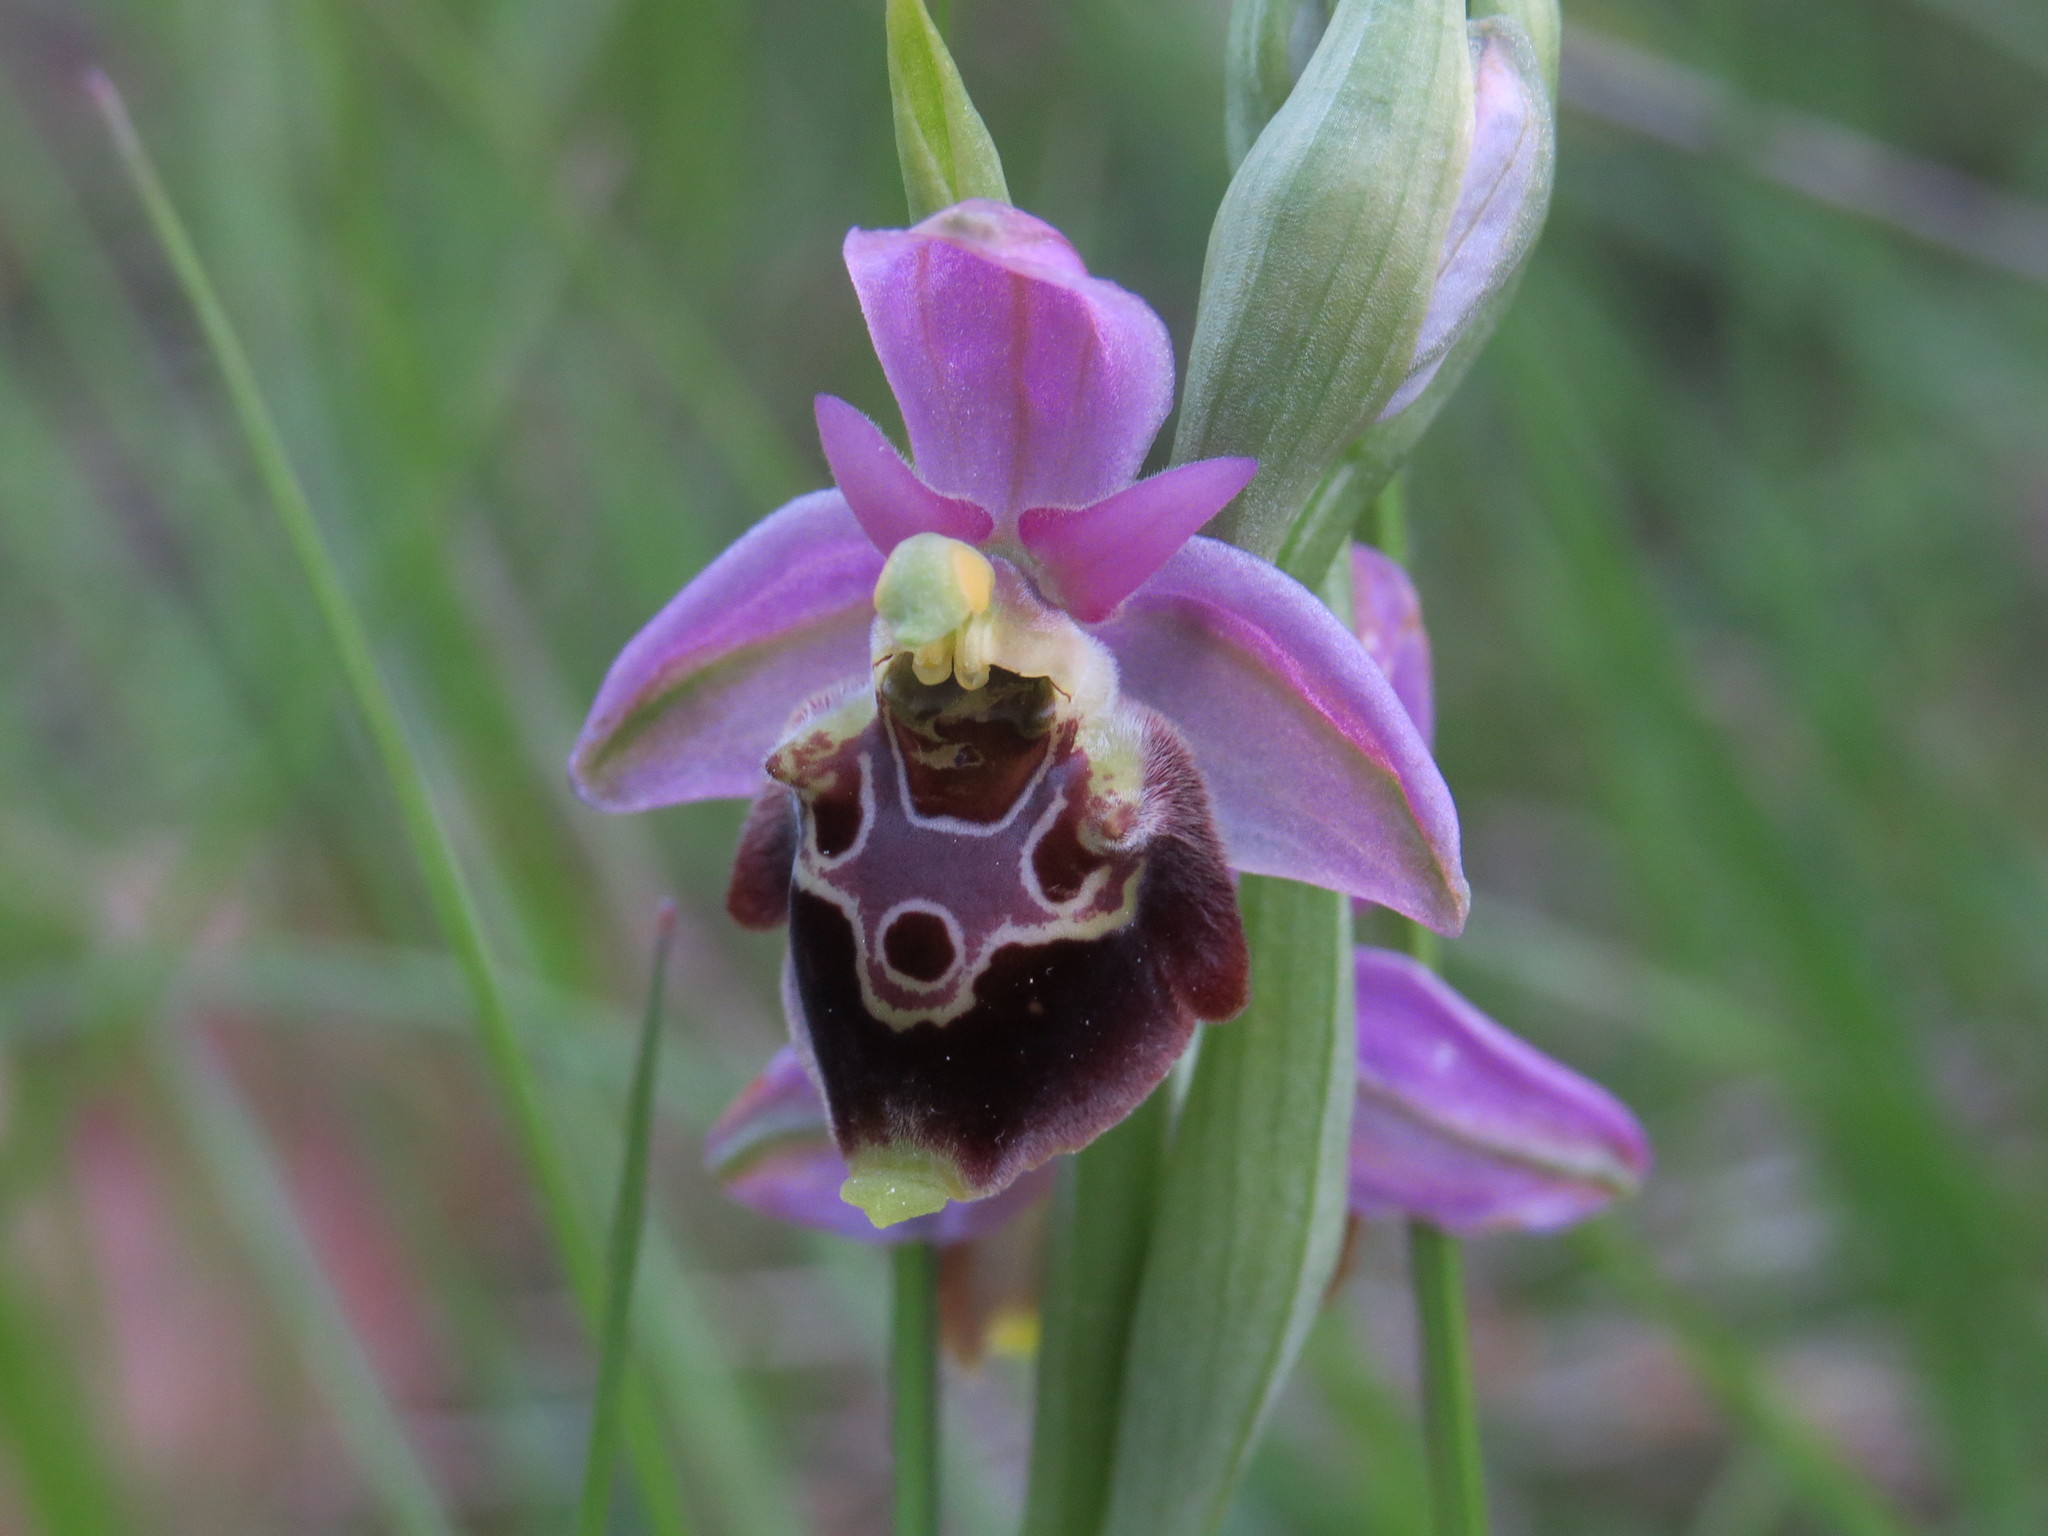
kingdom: Plantae
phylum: Tracheophyta
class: Liliopsida
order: Asparagales
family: Orchidaceae
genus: Ophrys
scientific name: Ophrys holosericea
